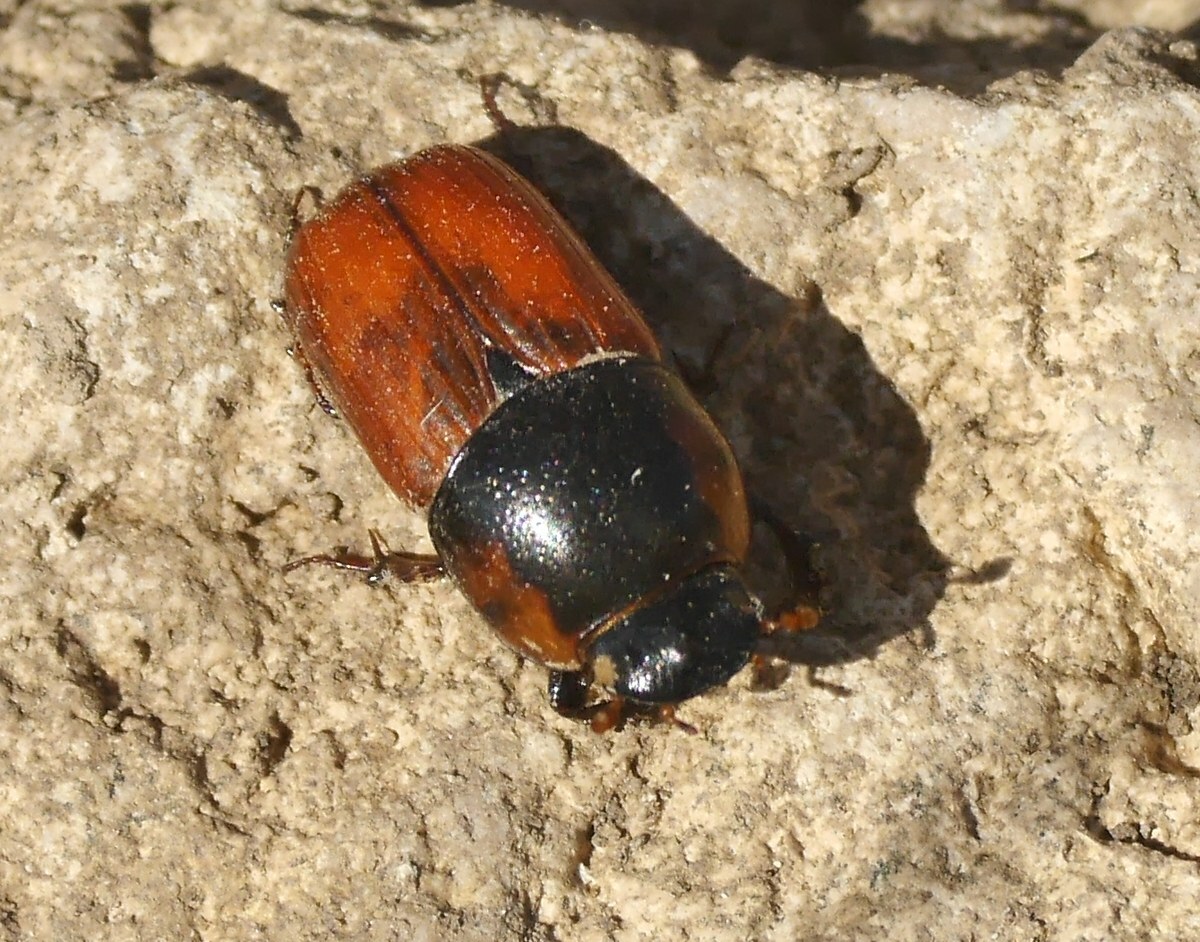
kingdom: Animalia
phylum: Arthropoda
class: Insecta
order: Coleoptera
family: Scarabaeidae
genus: Coprimorphus
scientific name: Coprimorphus scrutator
